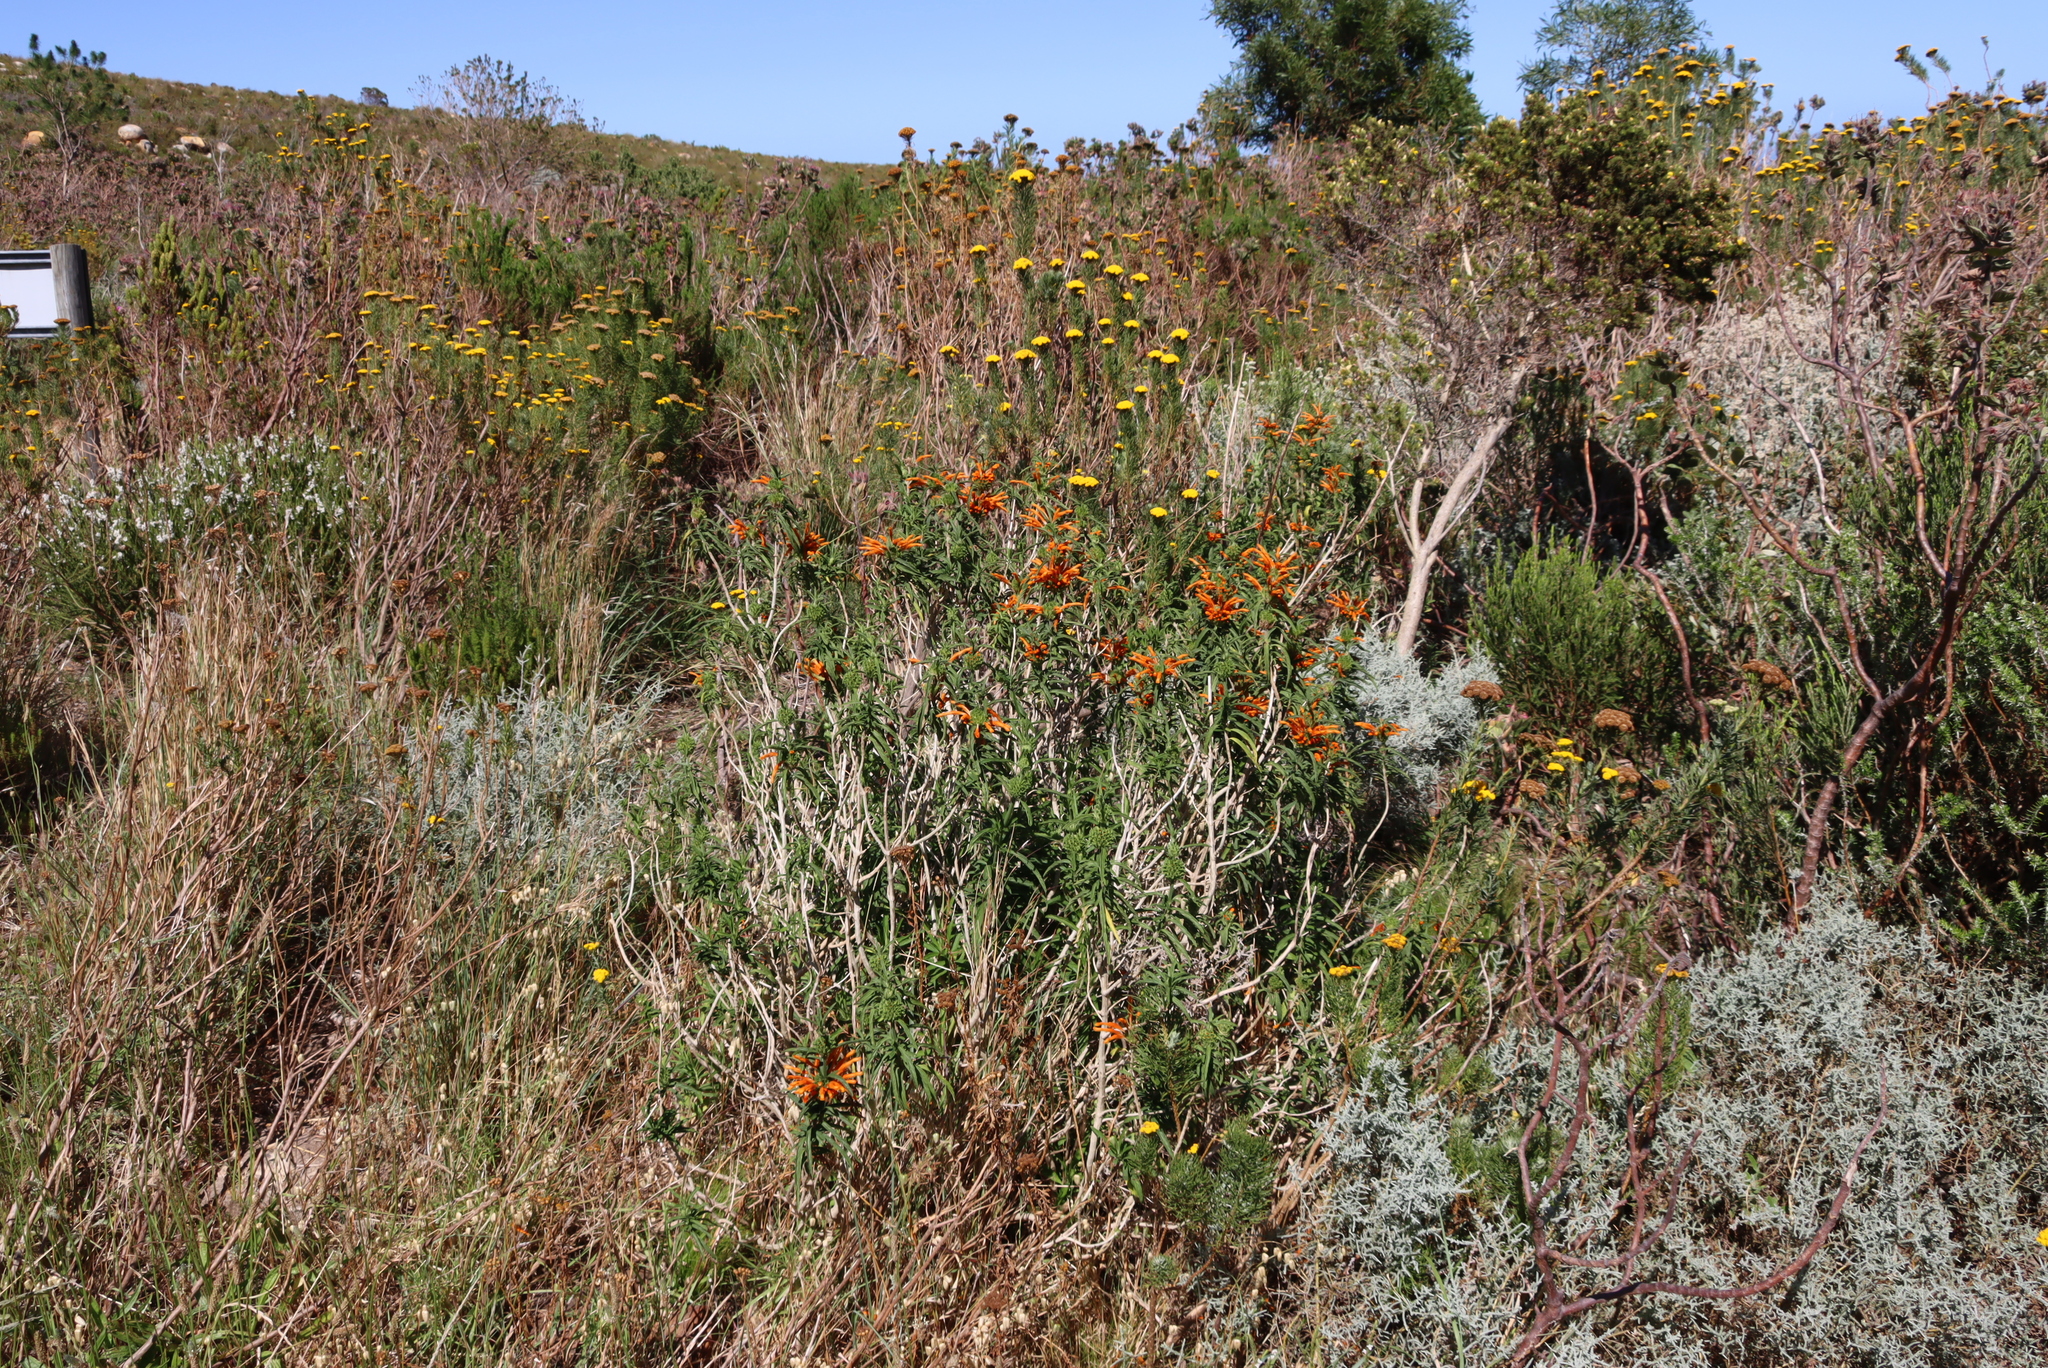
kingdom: Plantae
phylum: Tracheophyta
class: Magnoliopsida
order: Lamiales
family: Lamiaceae
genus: Leonotis
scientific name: Leonotis leonurus
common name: Lion's ear
